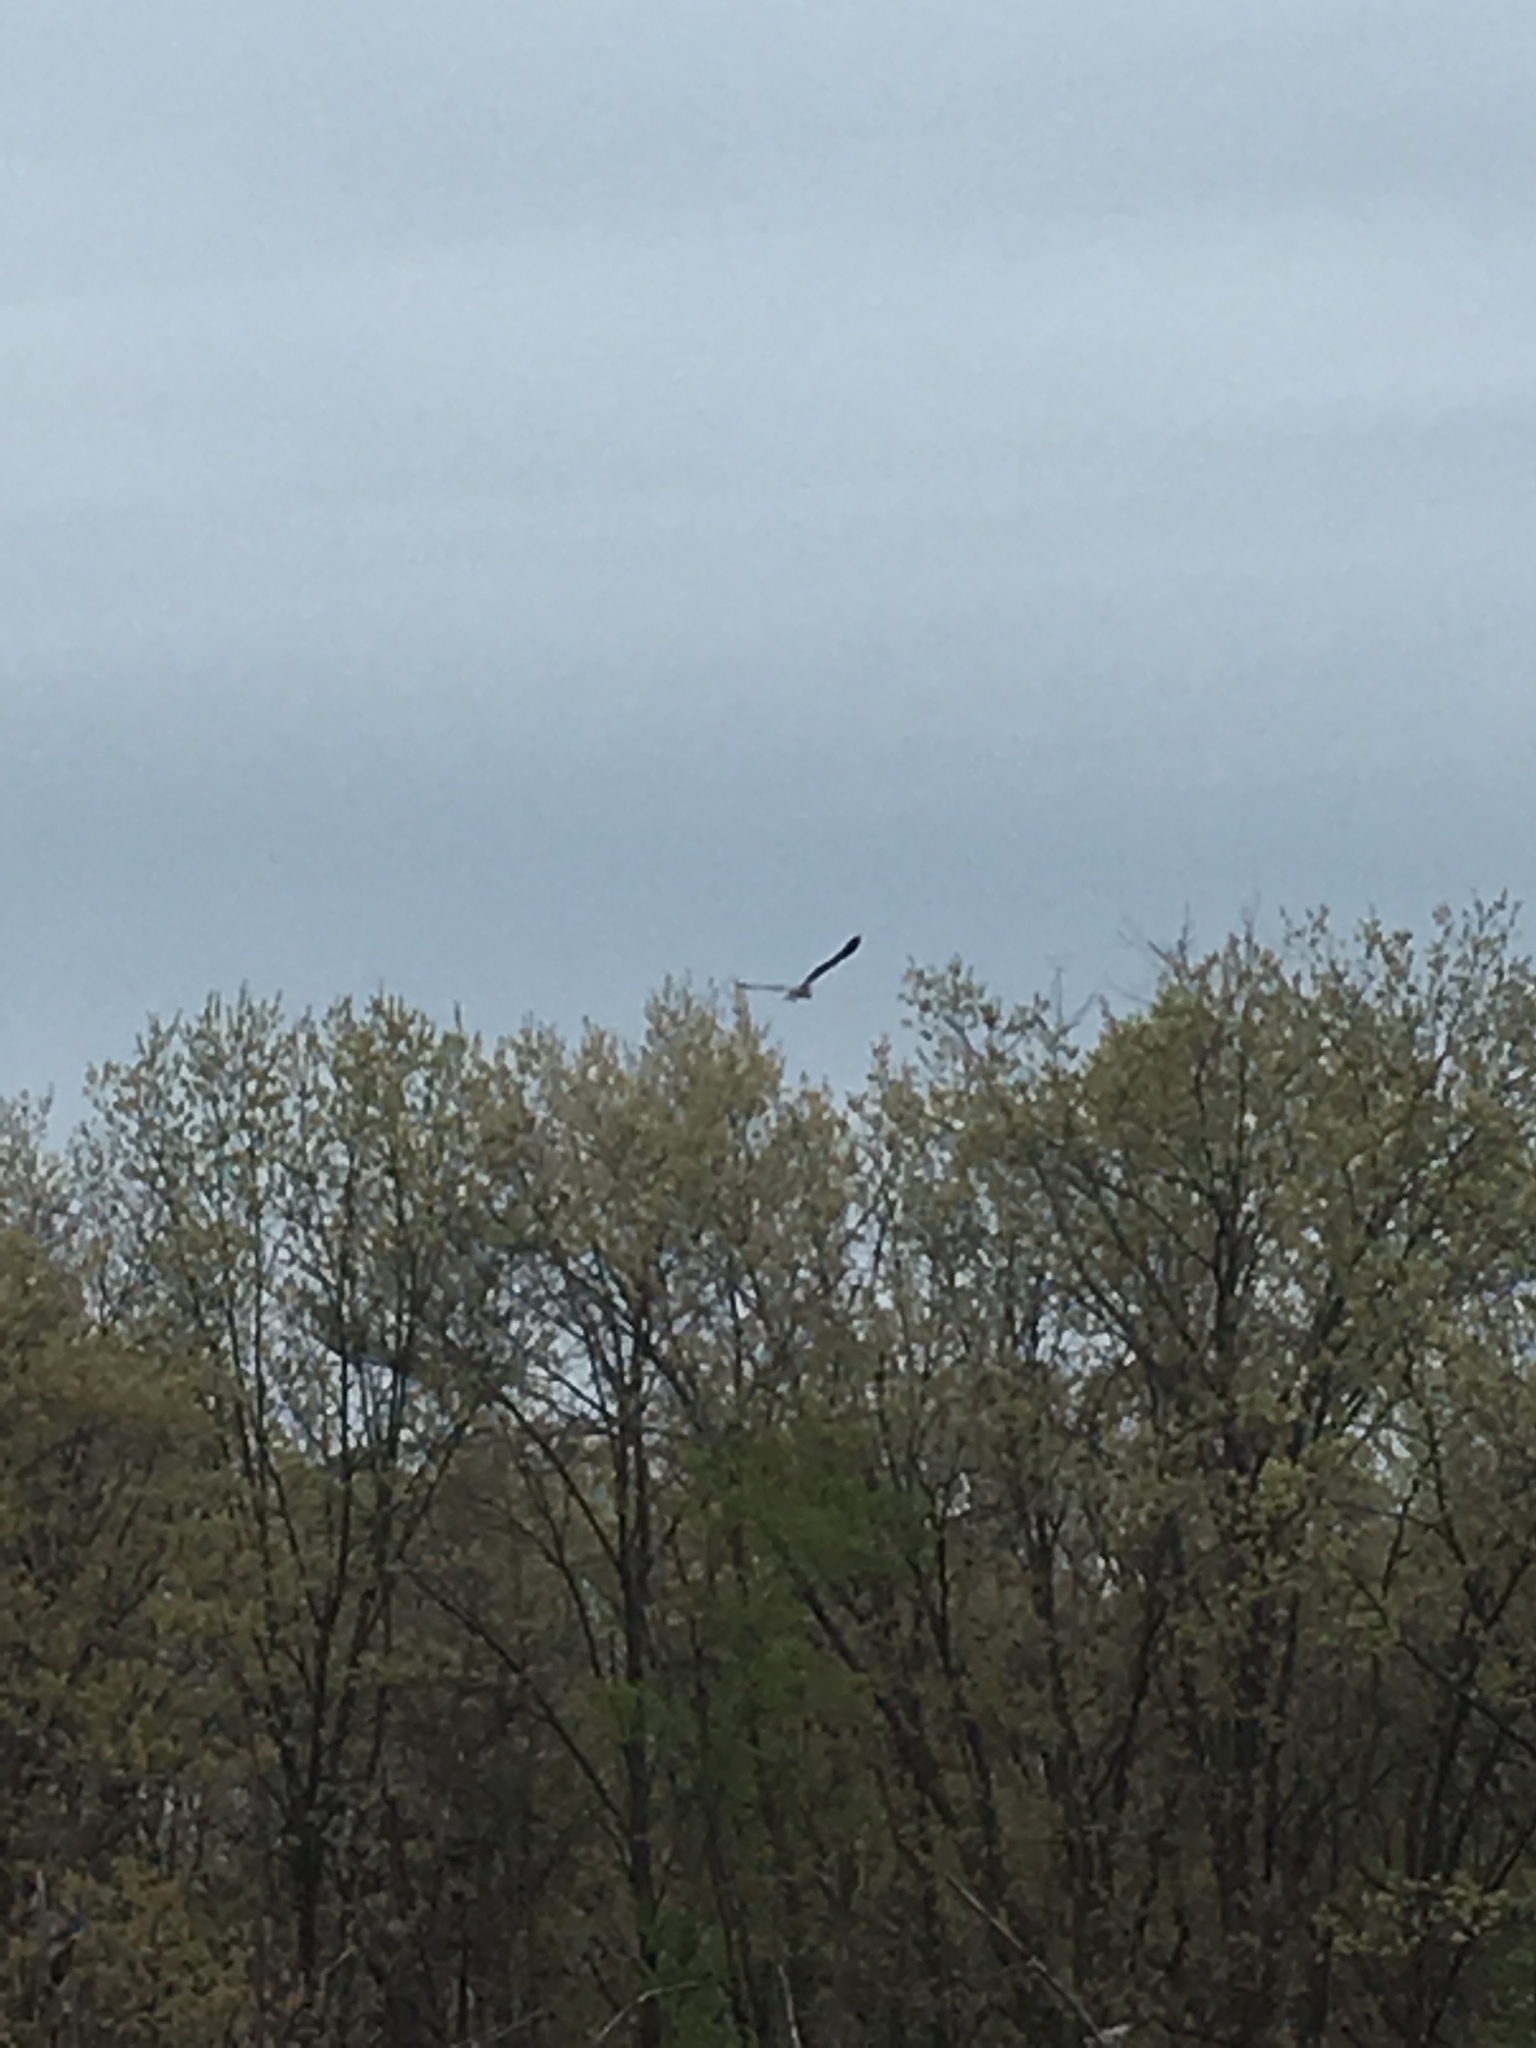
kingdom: Animalia
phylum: Chordata
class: Aves
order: Pelecaniformes
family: Ardeidae
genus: Ardea
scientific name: Ardea herodias
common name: Great blue heron
